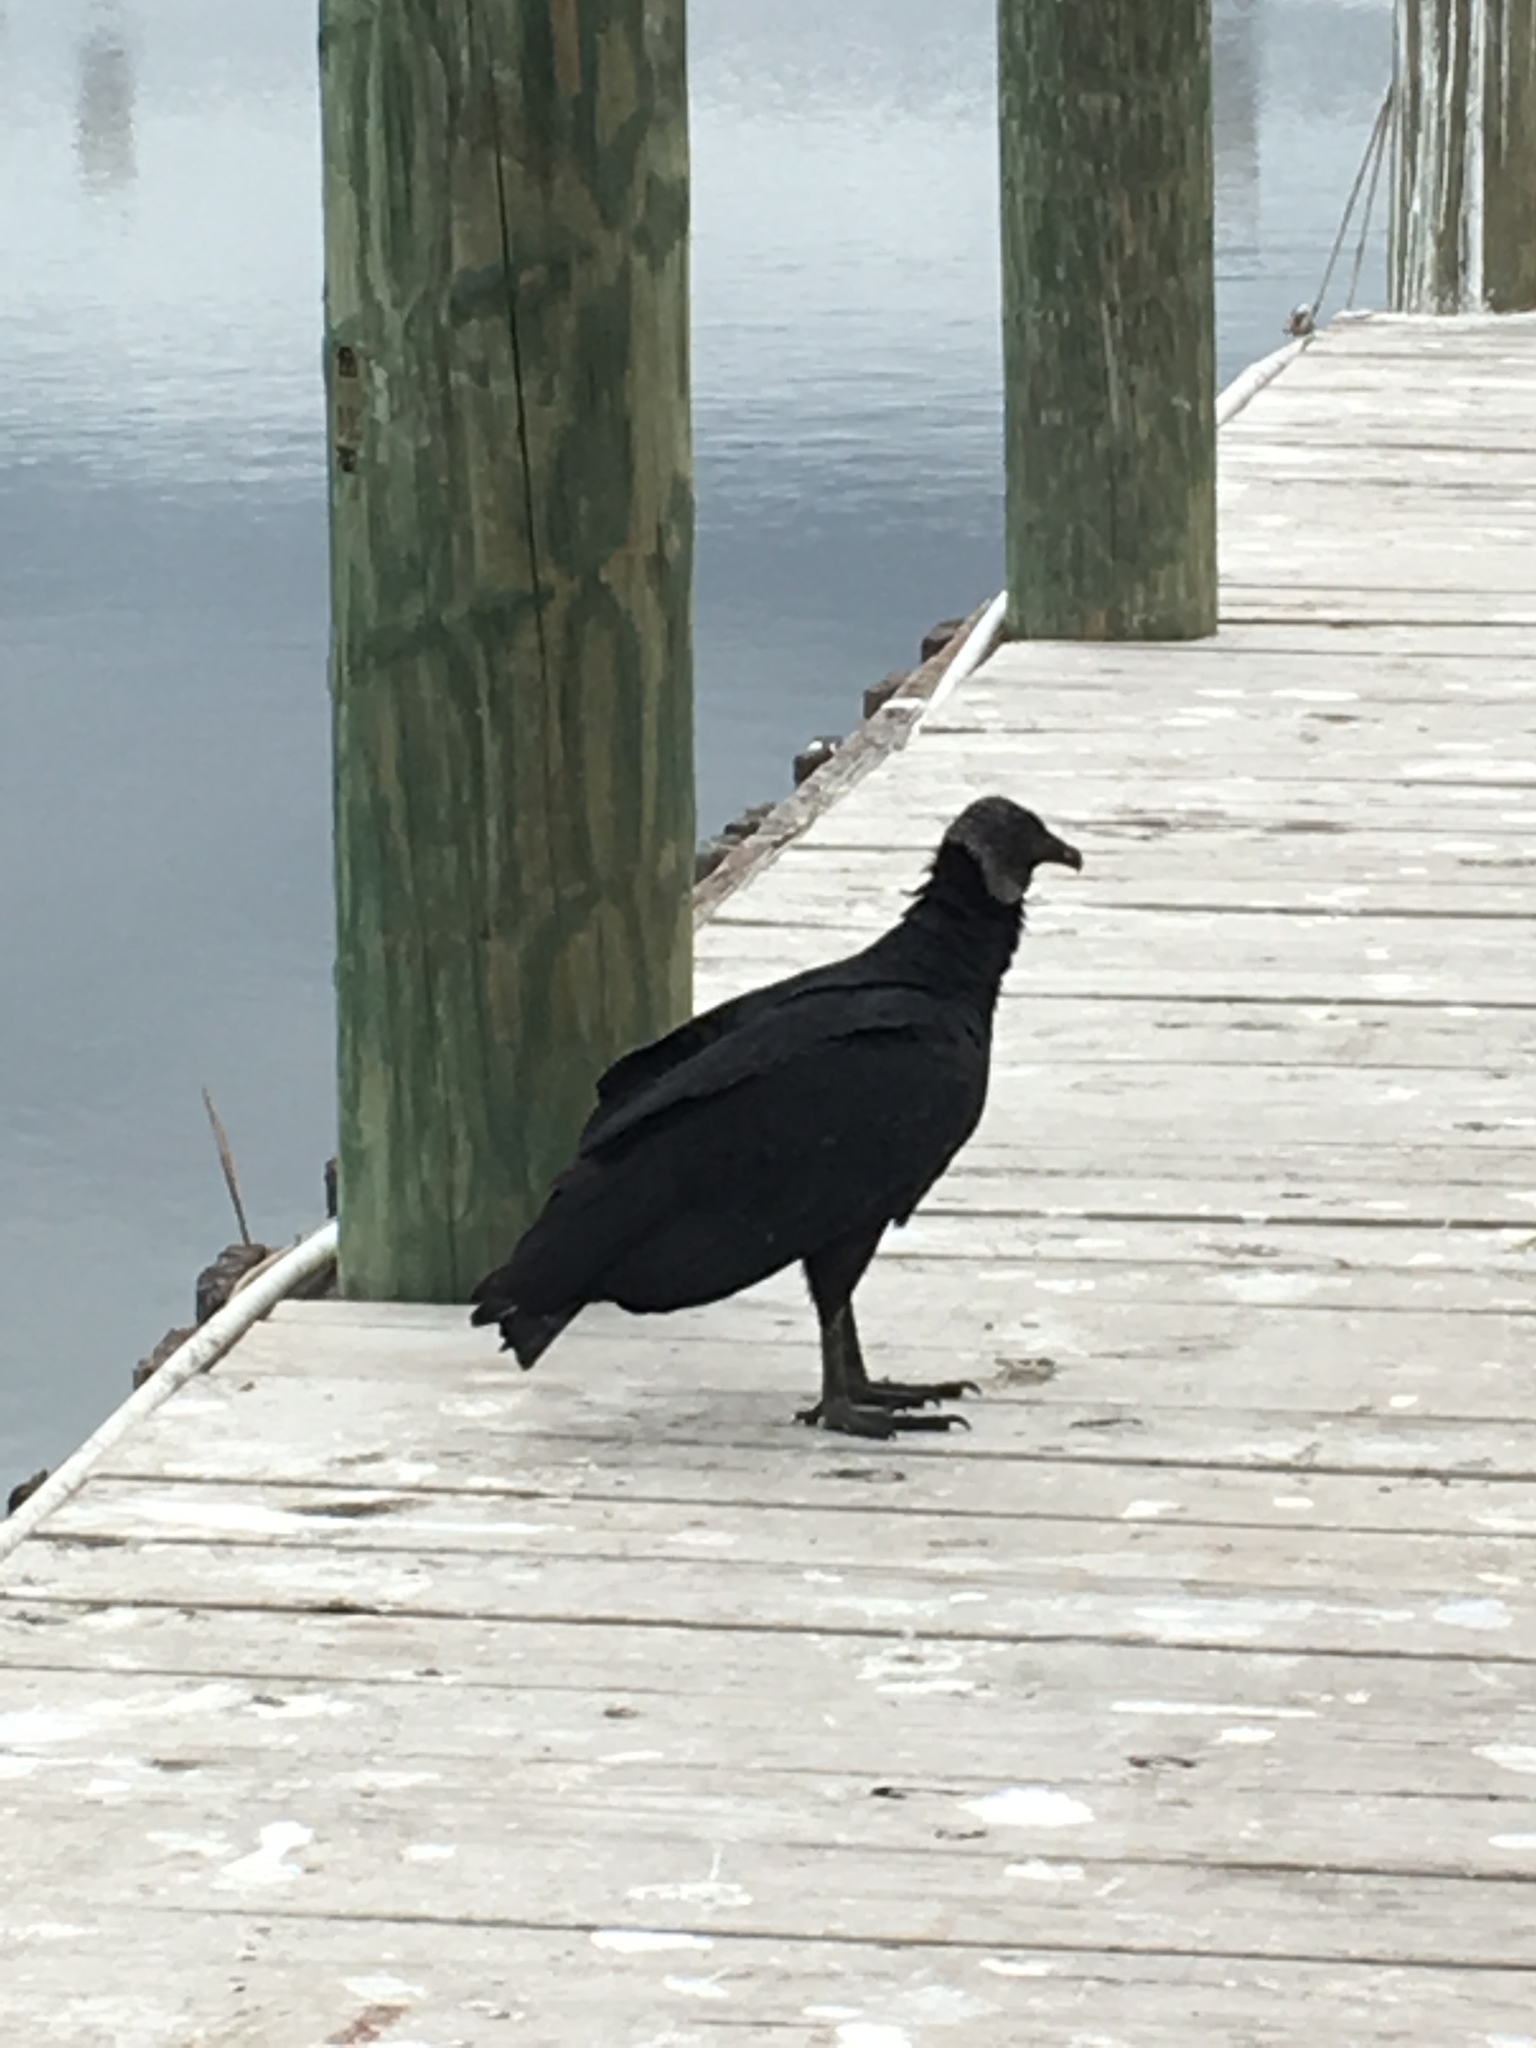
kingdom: Animalia
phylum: Chordata
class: Aves
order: Accipitriformes
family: Cathartidae
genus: Coragyps
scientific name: Coragyps atratus
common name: Black vulture
